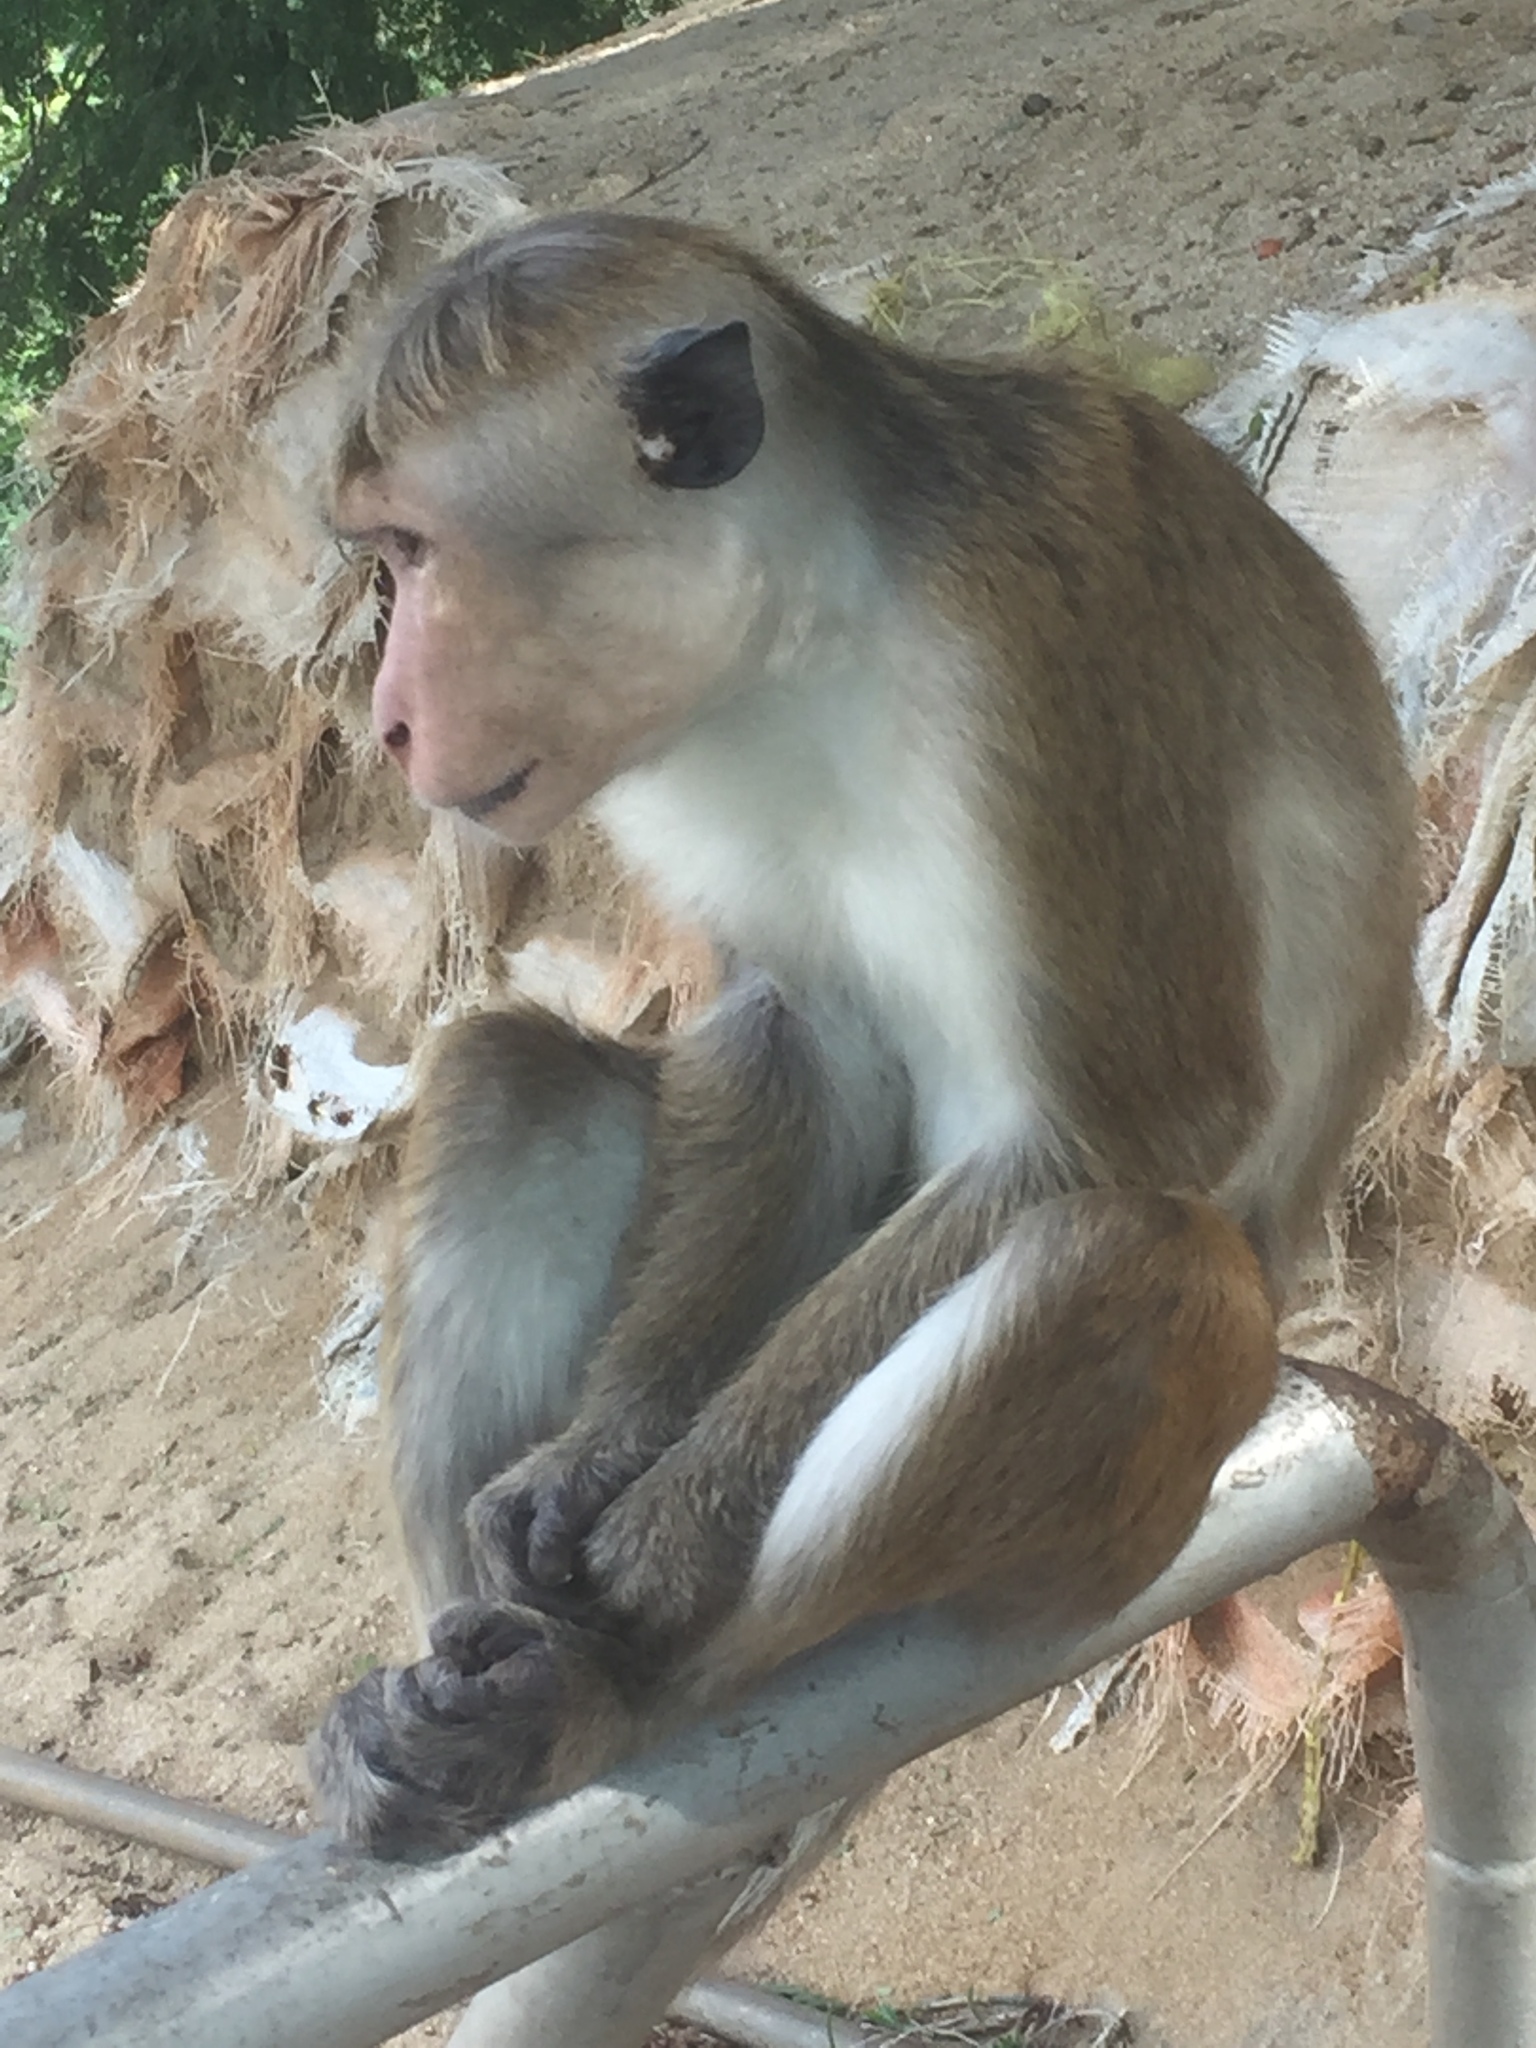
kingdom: Animalia
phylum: Chordata
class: Mammalia
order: Primates
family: Cercopithecidae
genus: Macaca
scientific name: Macaca sinica
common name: Toque macaque
